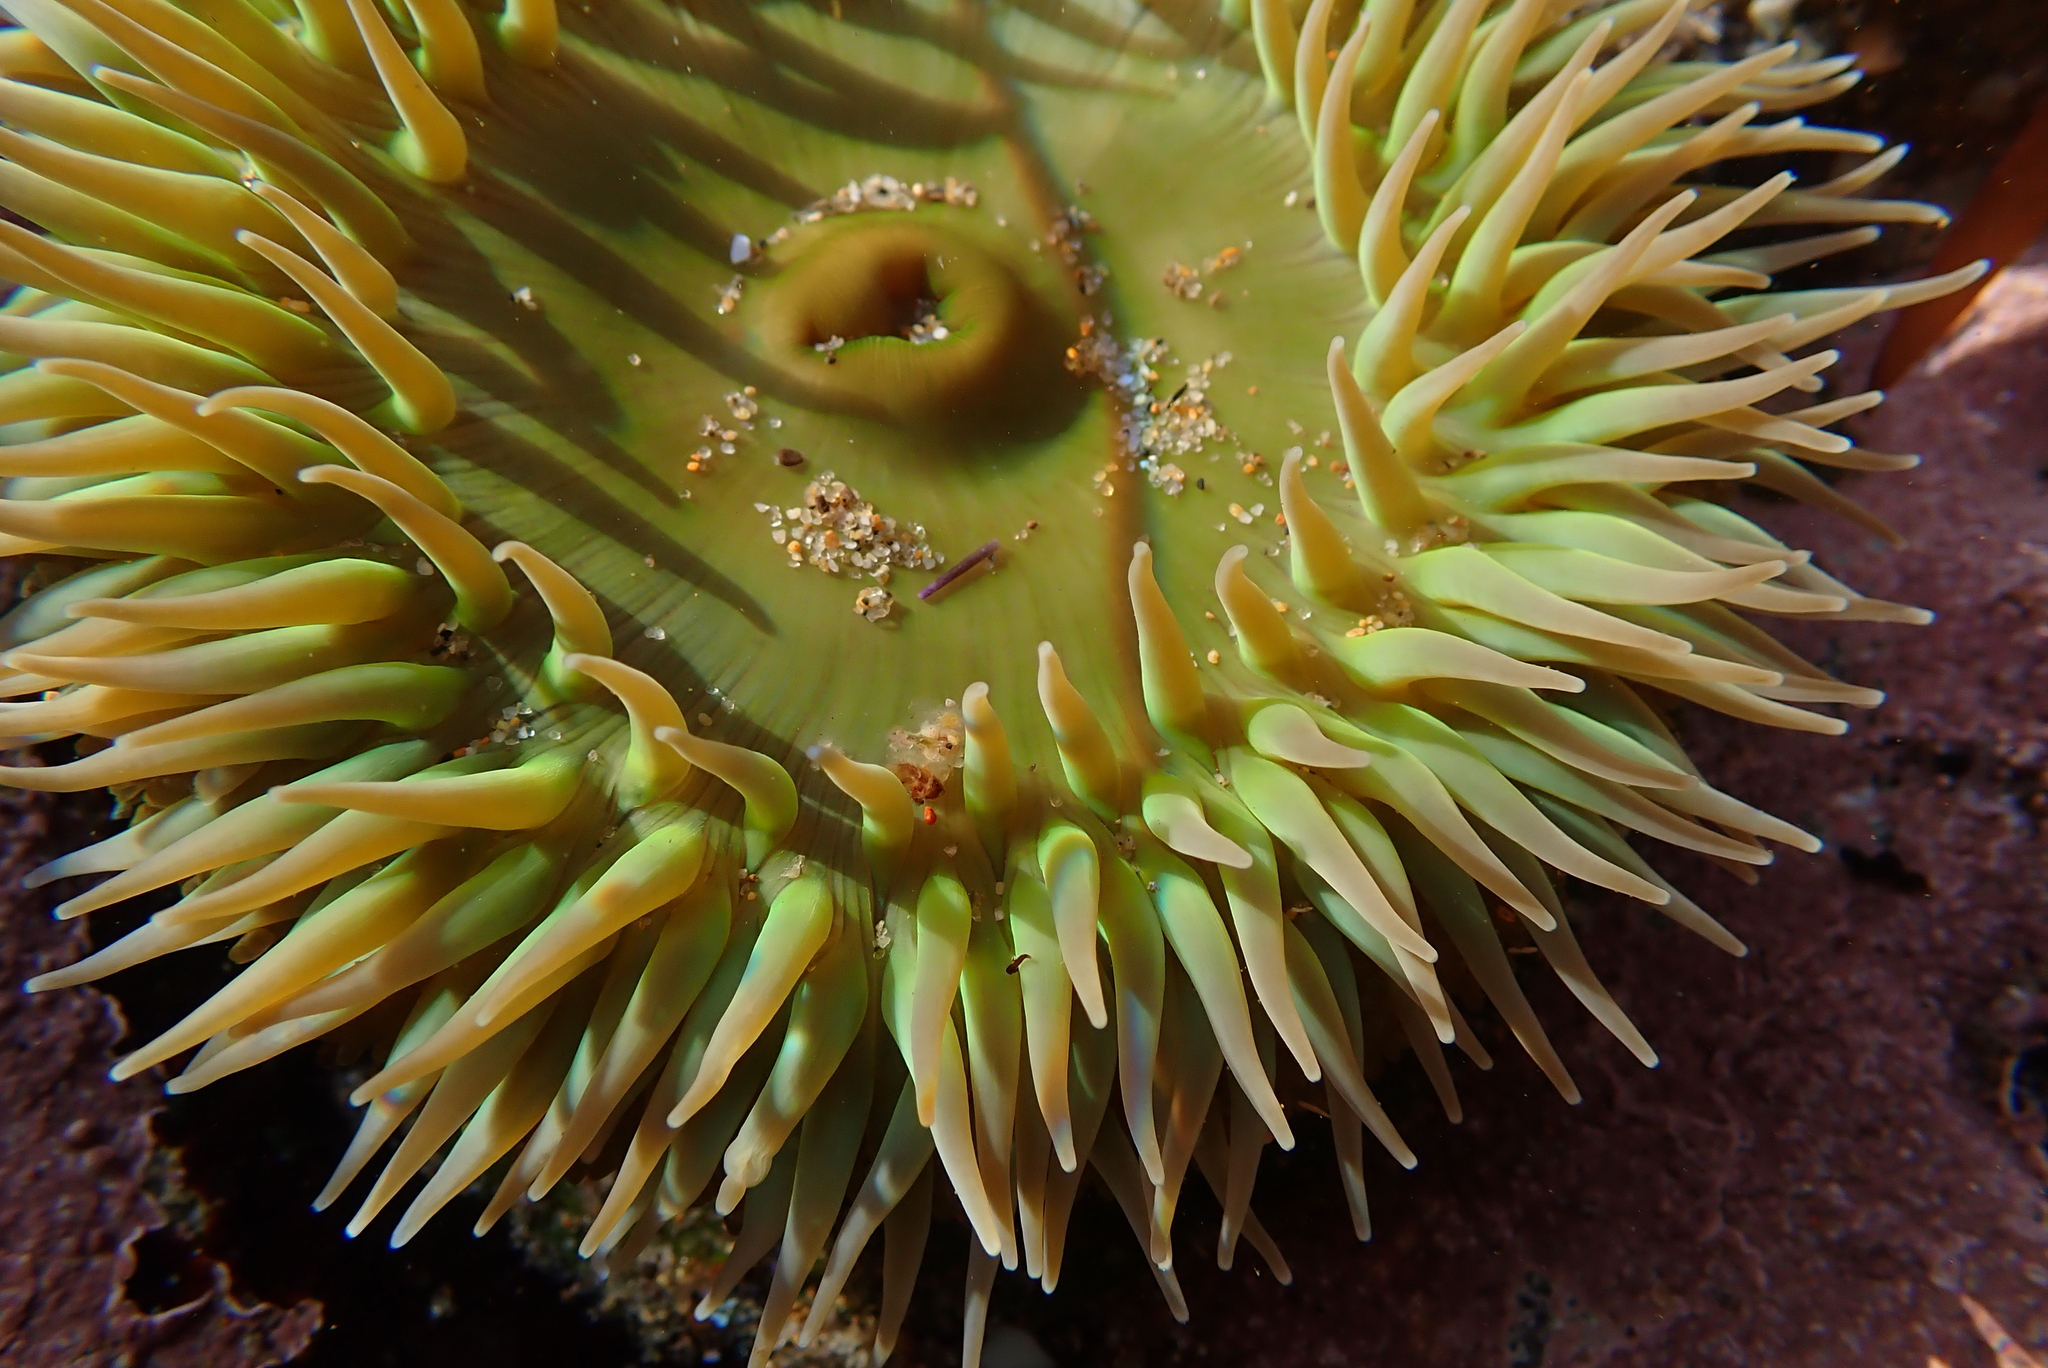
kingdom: Animalia
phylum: Cnidaria
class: Anthozoa
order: Actiniaria
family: Actiniidae
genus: Anthopleura
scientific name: Anthopleura xanthogrammica
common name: Giant green anemone
